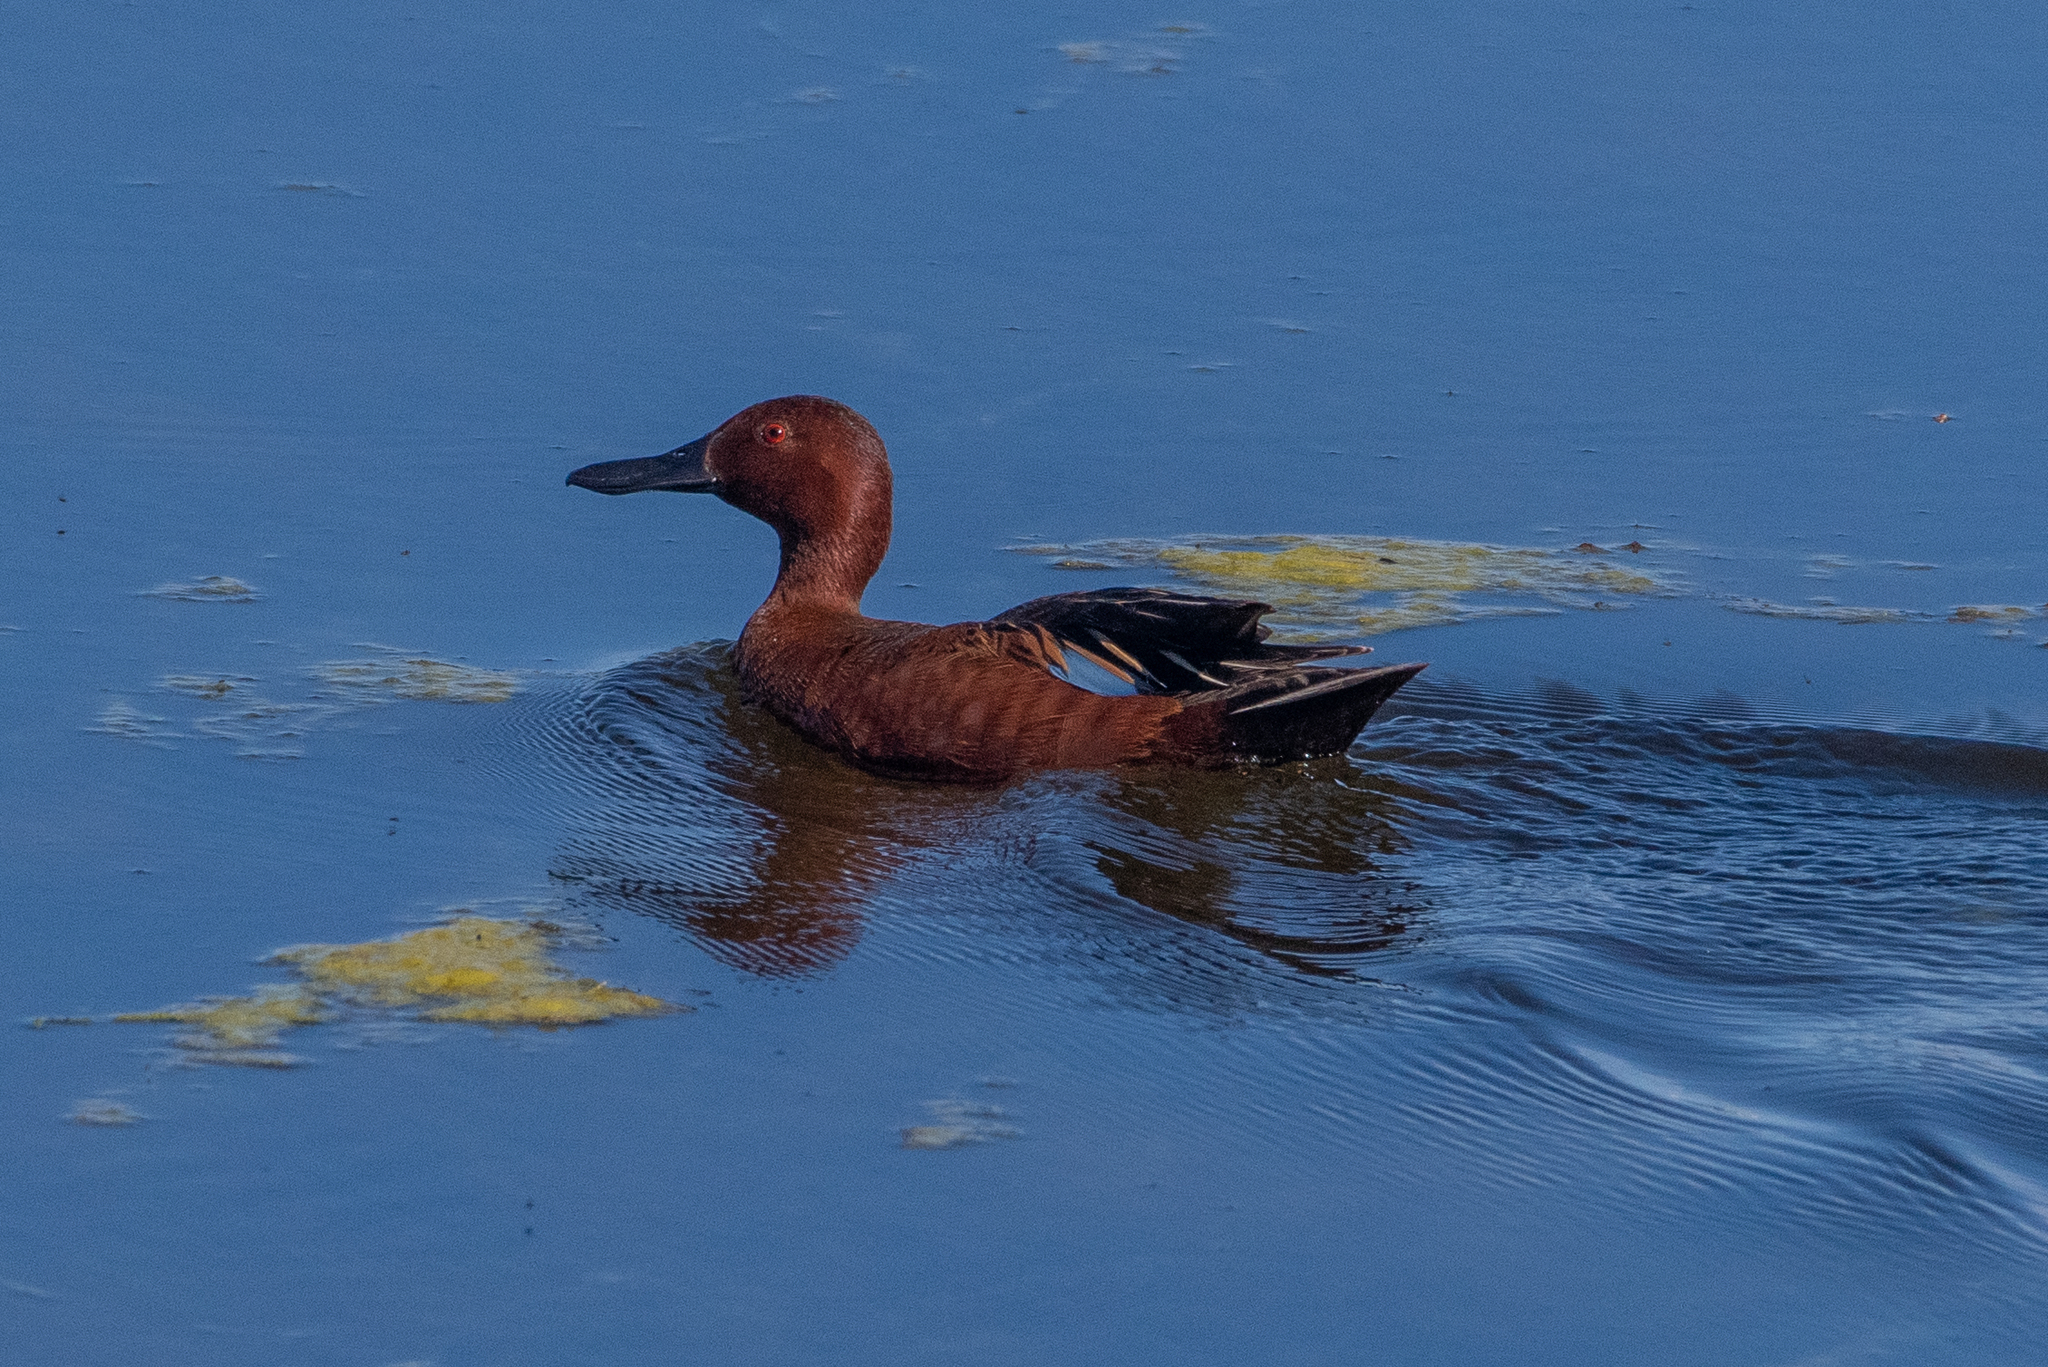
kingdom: Animalia
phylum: Chordata
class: Aves
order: Anseriformes
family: Anatidae
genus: Spatula
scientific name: Spatula cyanoptera
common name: Cinnamon teal
